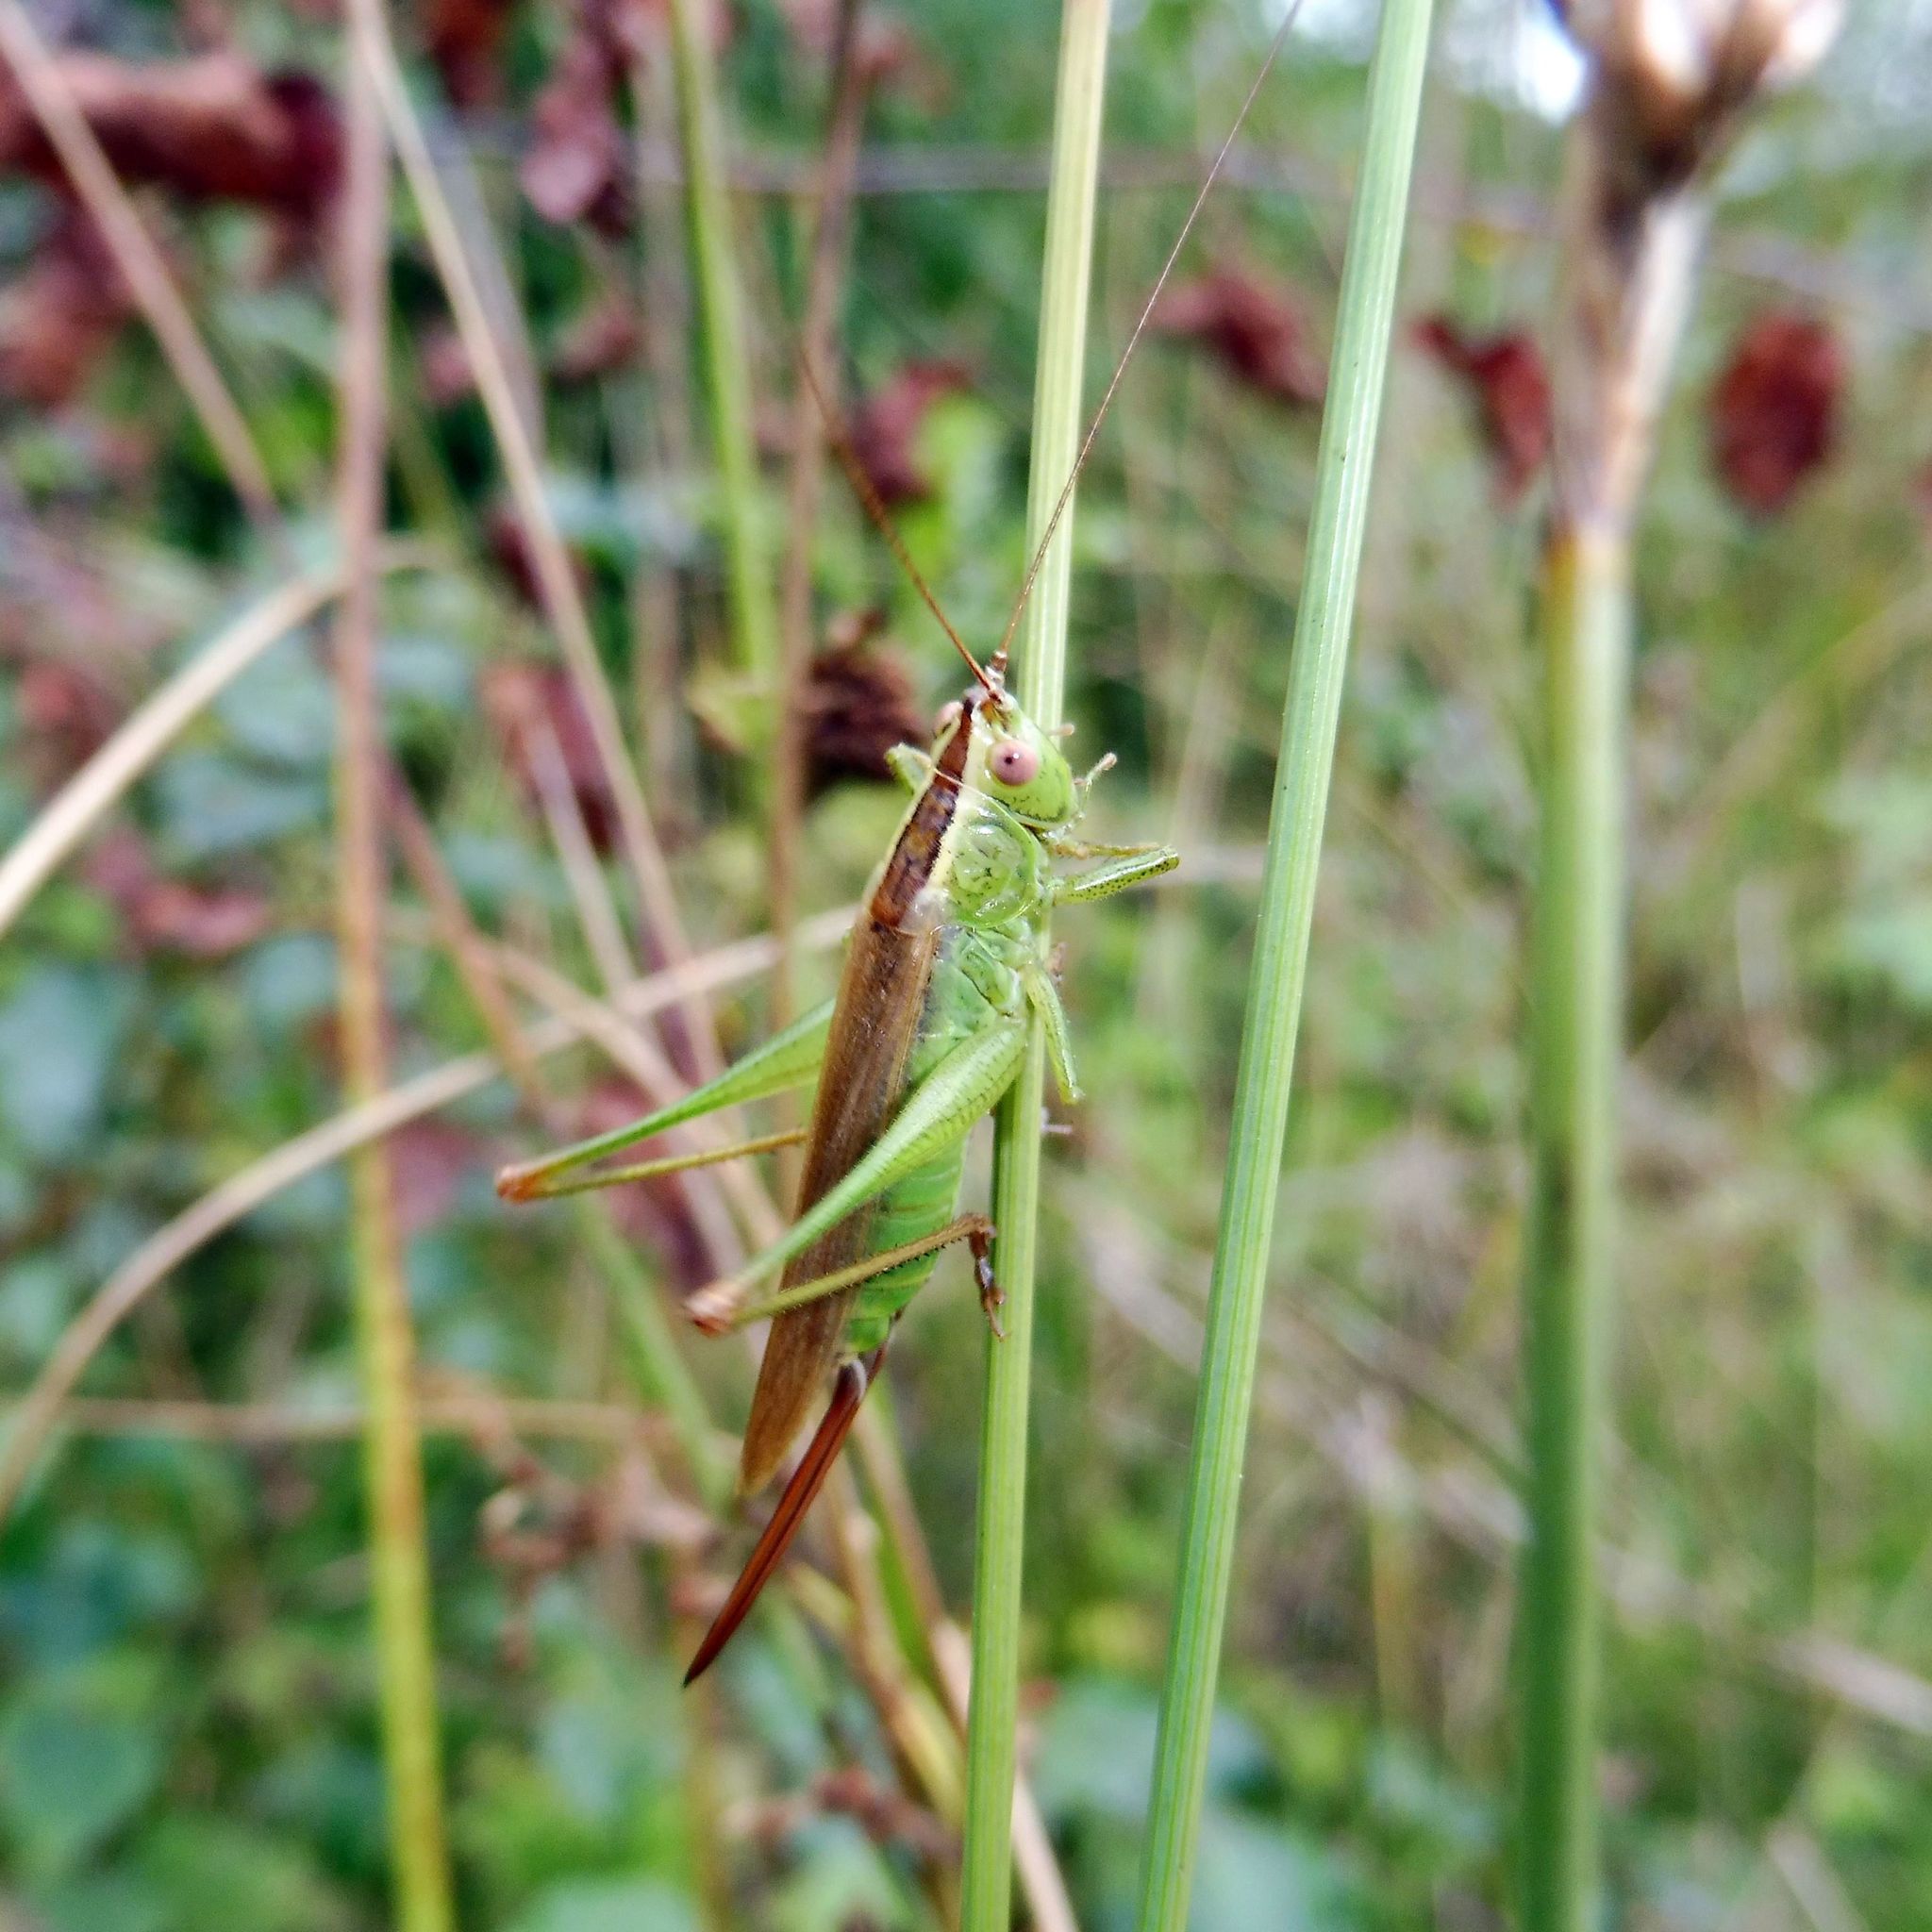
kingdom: Animalia
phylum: Arthropoda
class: Insecta
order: Orthoptera
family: Tettigoniidae
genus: Conocephalus
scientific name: Conocephalus fuscus
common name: Long-winged conehead
